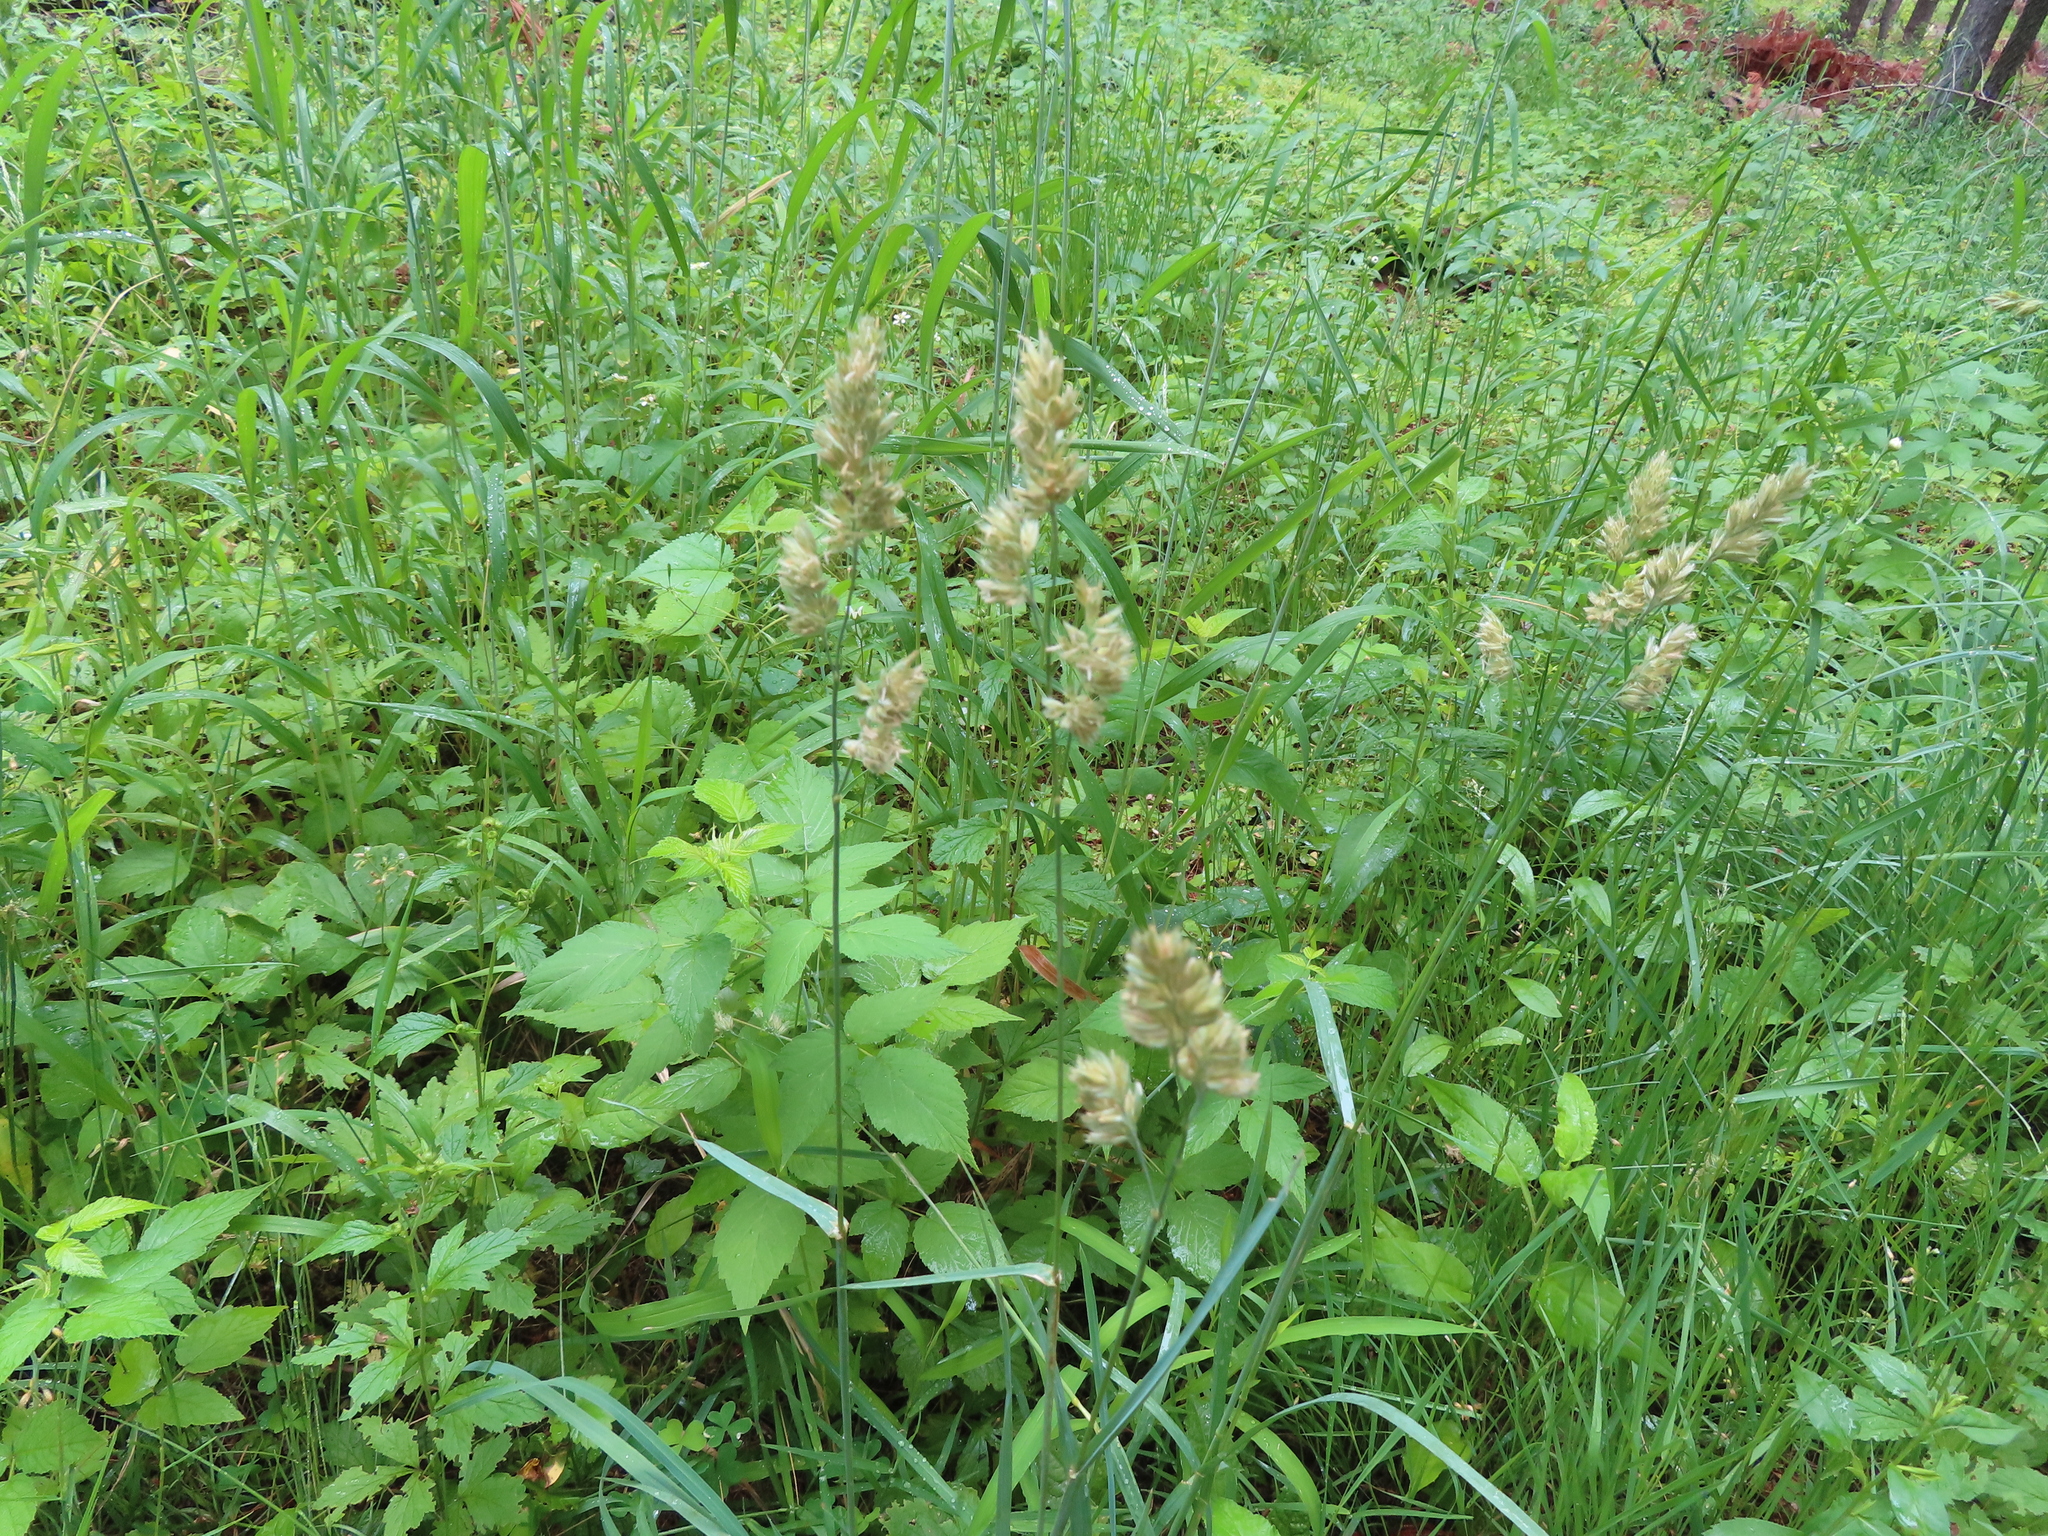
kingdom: Plantae
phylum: Tracheophyta
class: Liliopsida
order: Poales
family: Poaceae
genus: Dactylis
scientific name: Dactylis glomerata
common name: Orchardgrass
